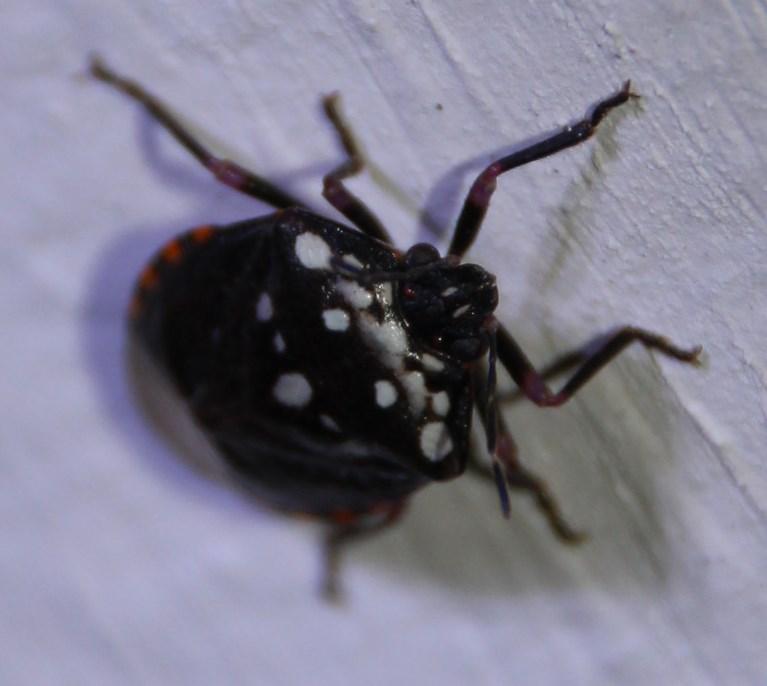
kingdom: Animalia
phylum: Arthropoda
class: Insecta
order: Hemiptera
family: Pentatomidae
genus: Antestia
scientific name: Antestia
